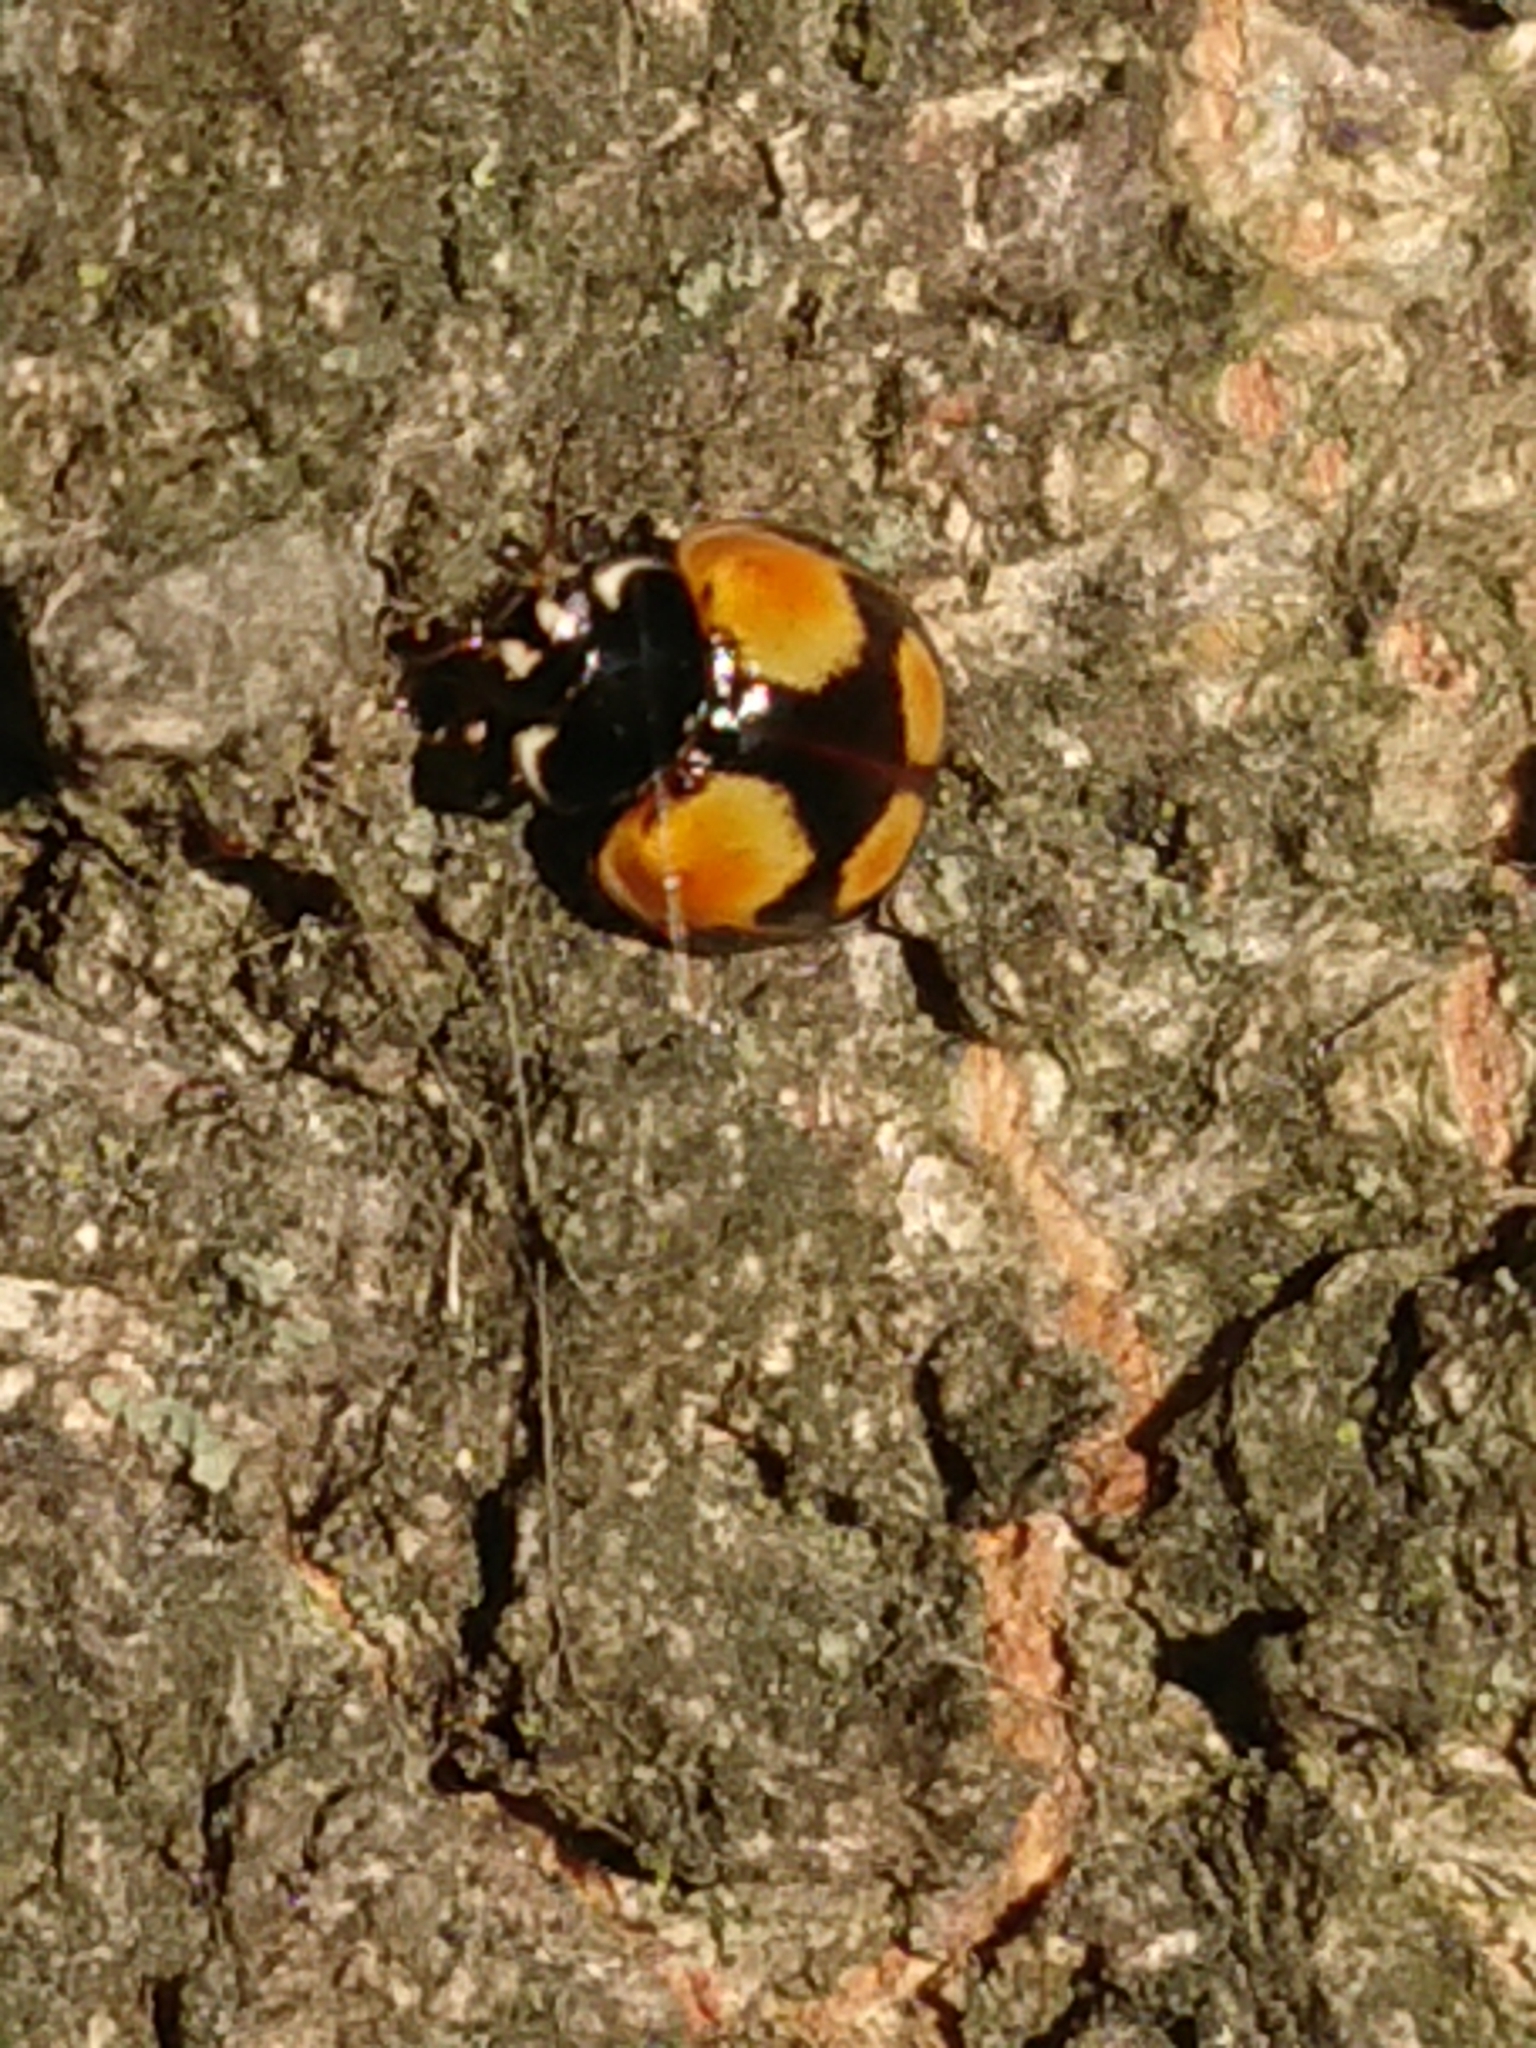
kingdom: Animalia
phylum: Arthropoda
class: Insecta
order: Coleoptera
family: Coccinellidae
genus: Adalia
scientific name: Adalia bipunctata
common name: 2-spot ladybird
